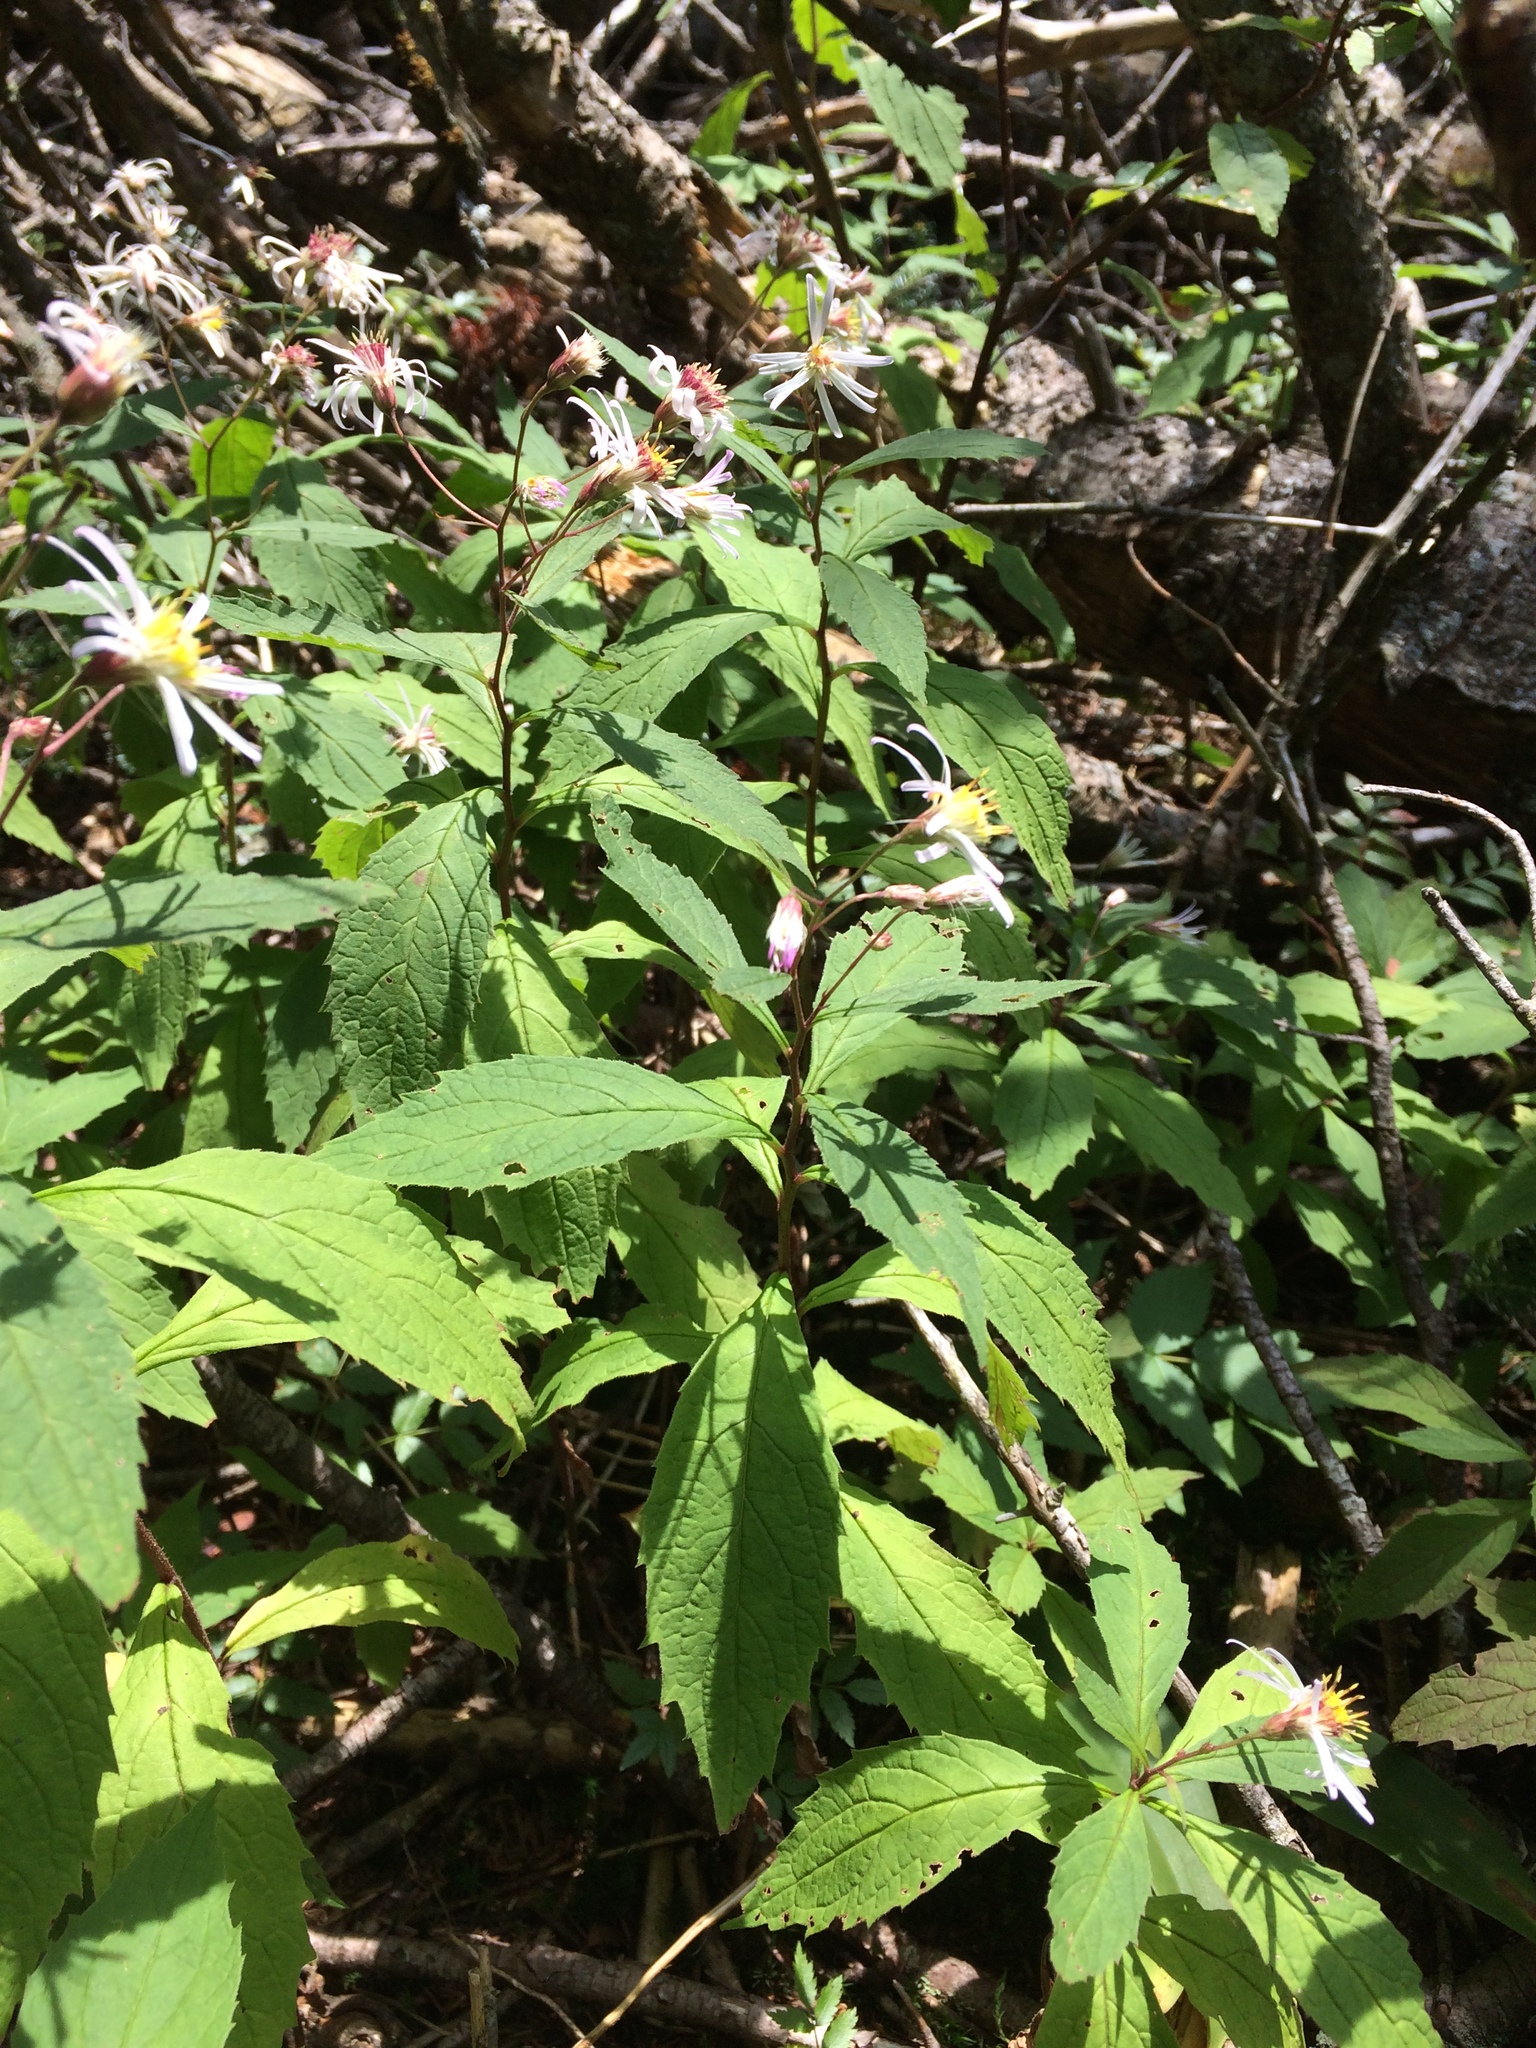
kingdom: Plantae
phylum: Tracheophyta
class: Magnoliopsida
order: Asterales
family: Asteraceae
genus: Oclemena
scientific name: Oclemena acuminata
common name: Mountain aster
